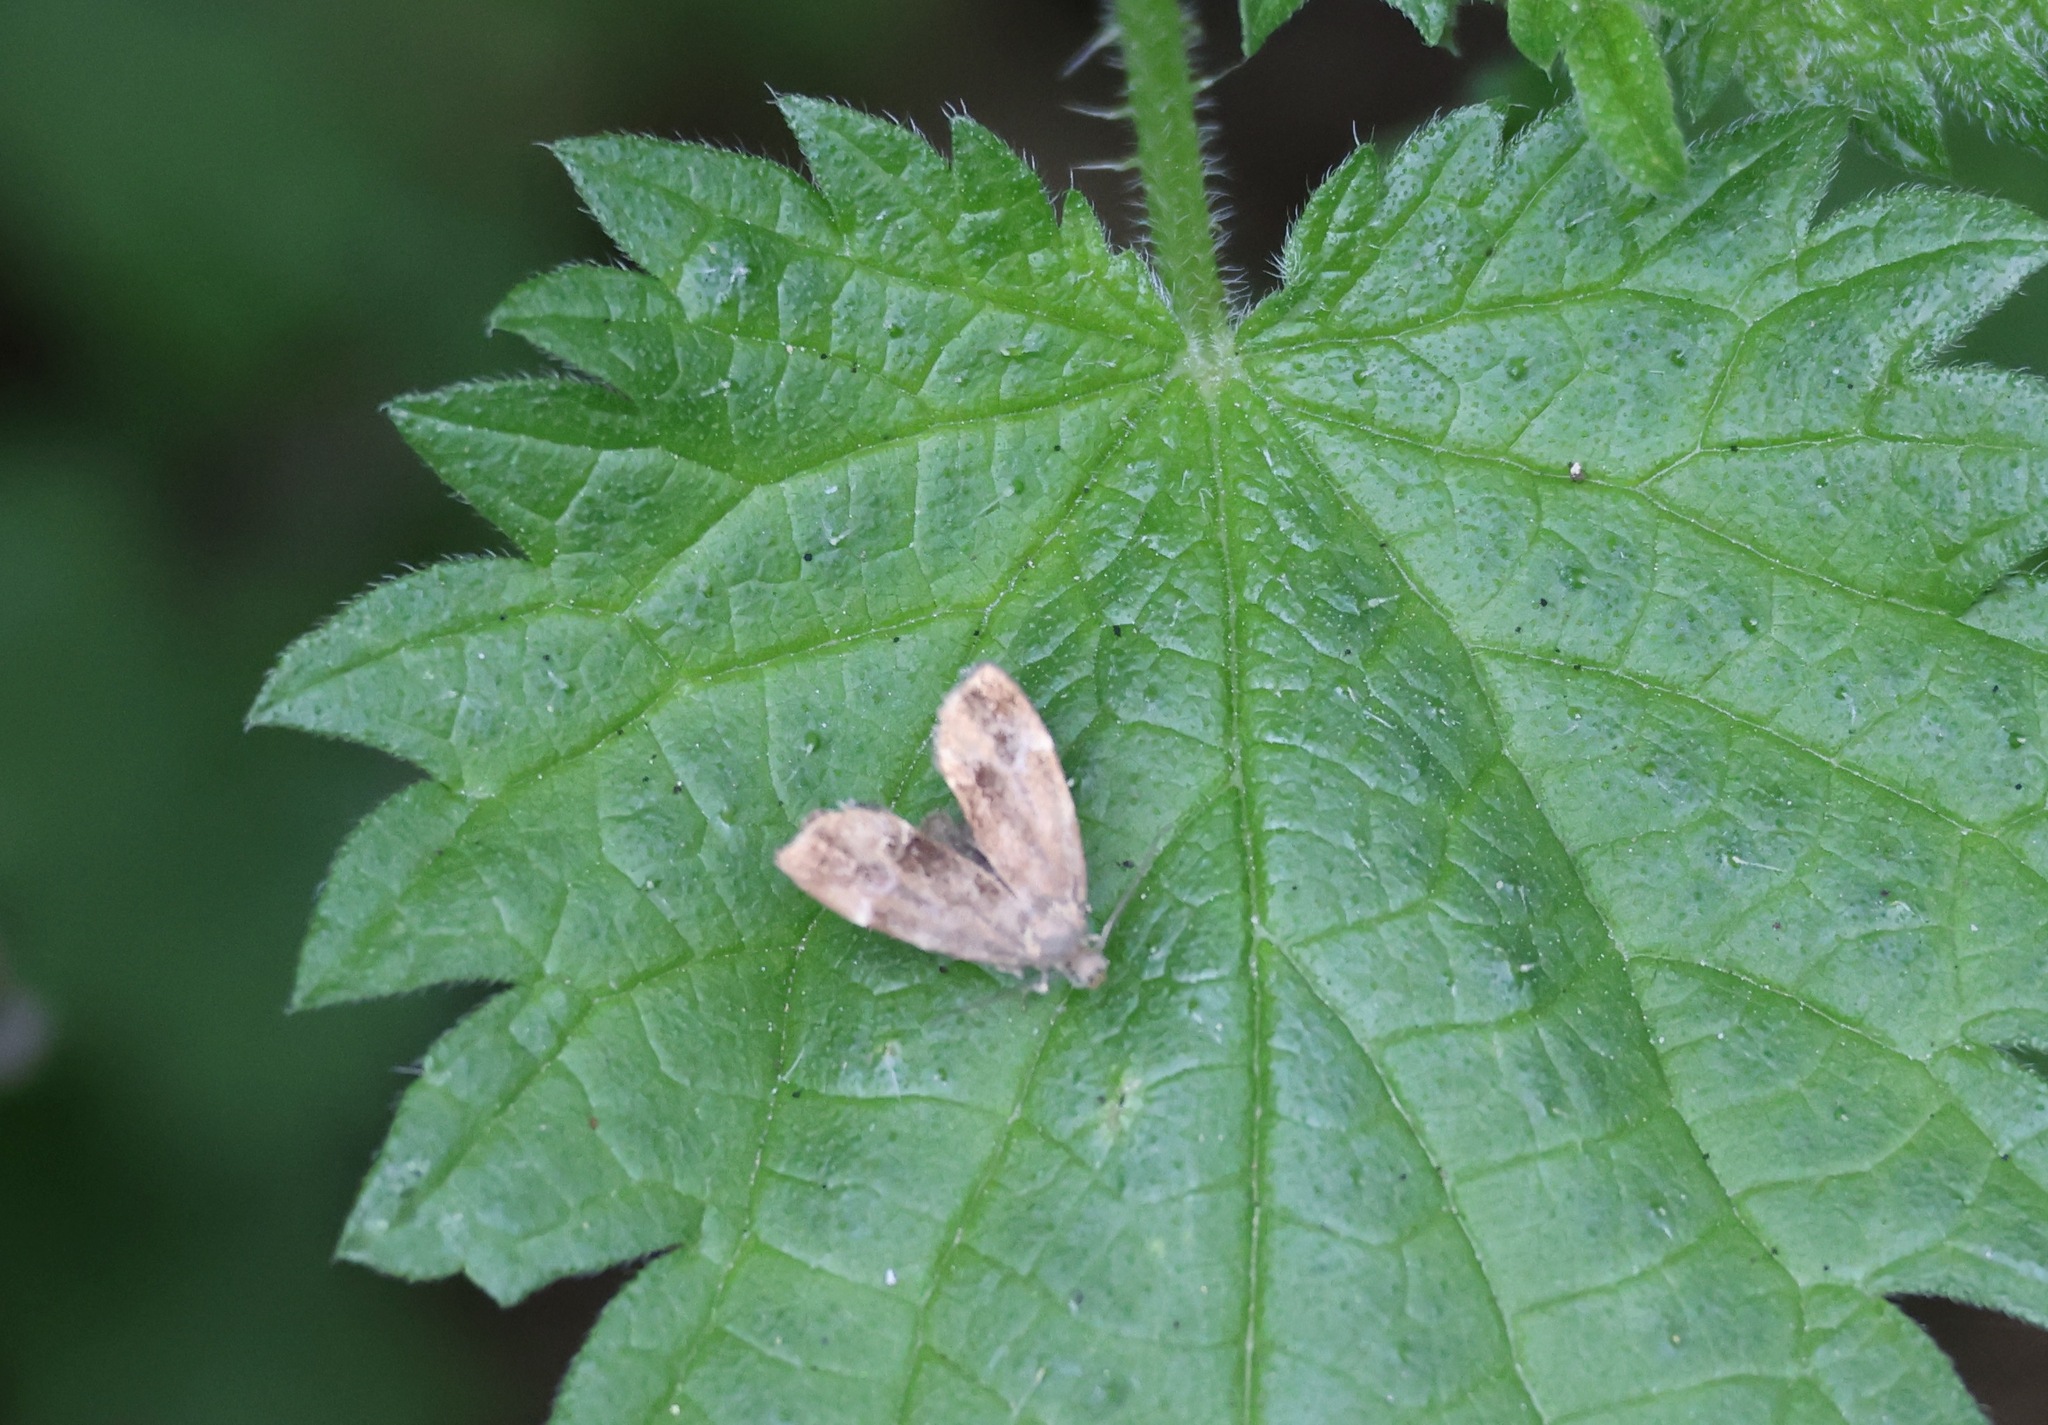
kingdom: Animalia
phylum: Arthropoda
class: Insecta
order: Lepidoptera
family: Choreutidae
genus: Anthophila
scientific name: Anthophila fabriciana
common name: Nettle-tap
